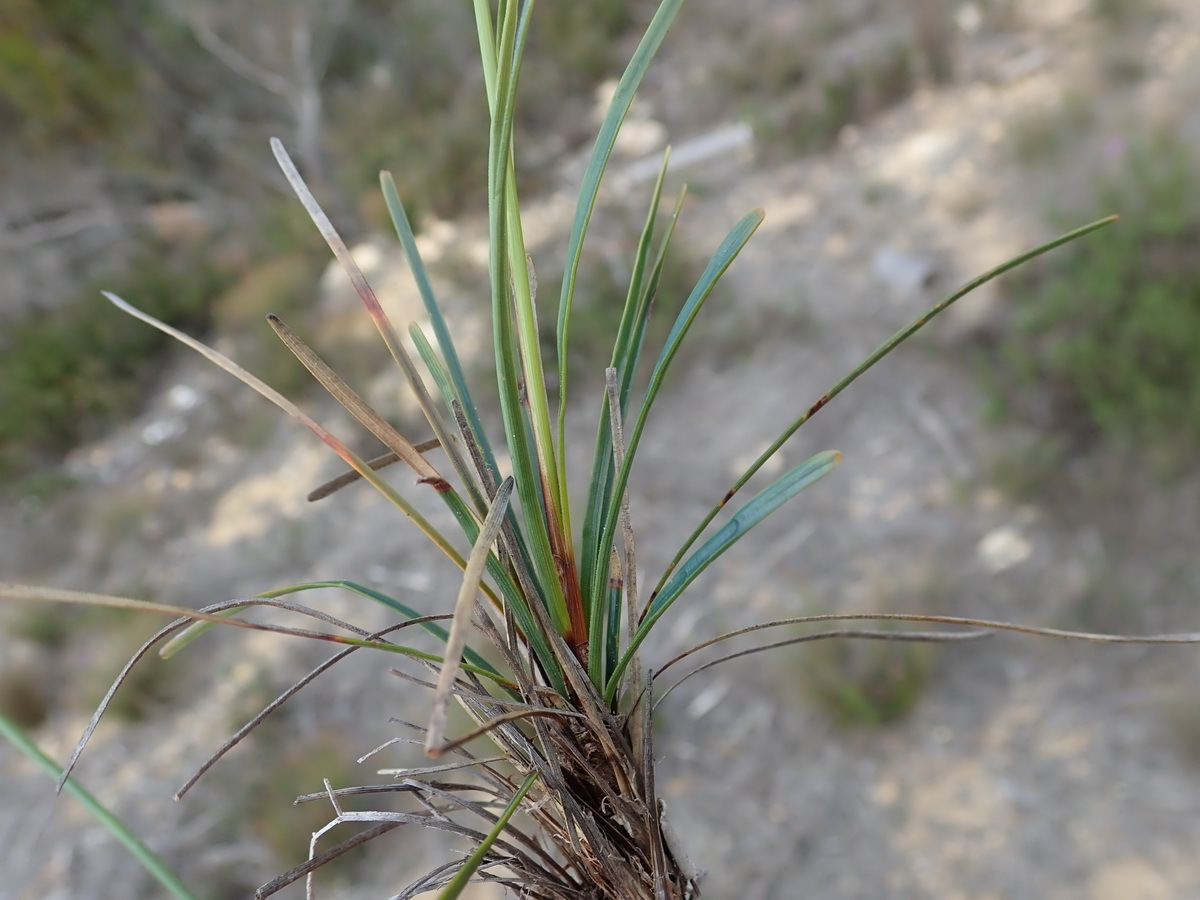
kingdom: Plantae
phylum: Tracheophyta
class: Liliopsida
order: Poales
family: Cyperaceae
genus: Ficinia
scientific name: Ficinia praemorsa
